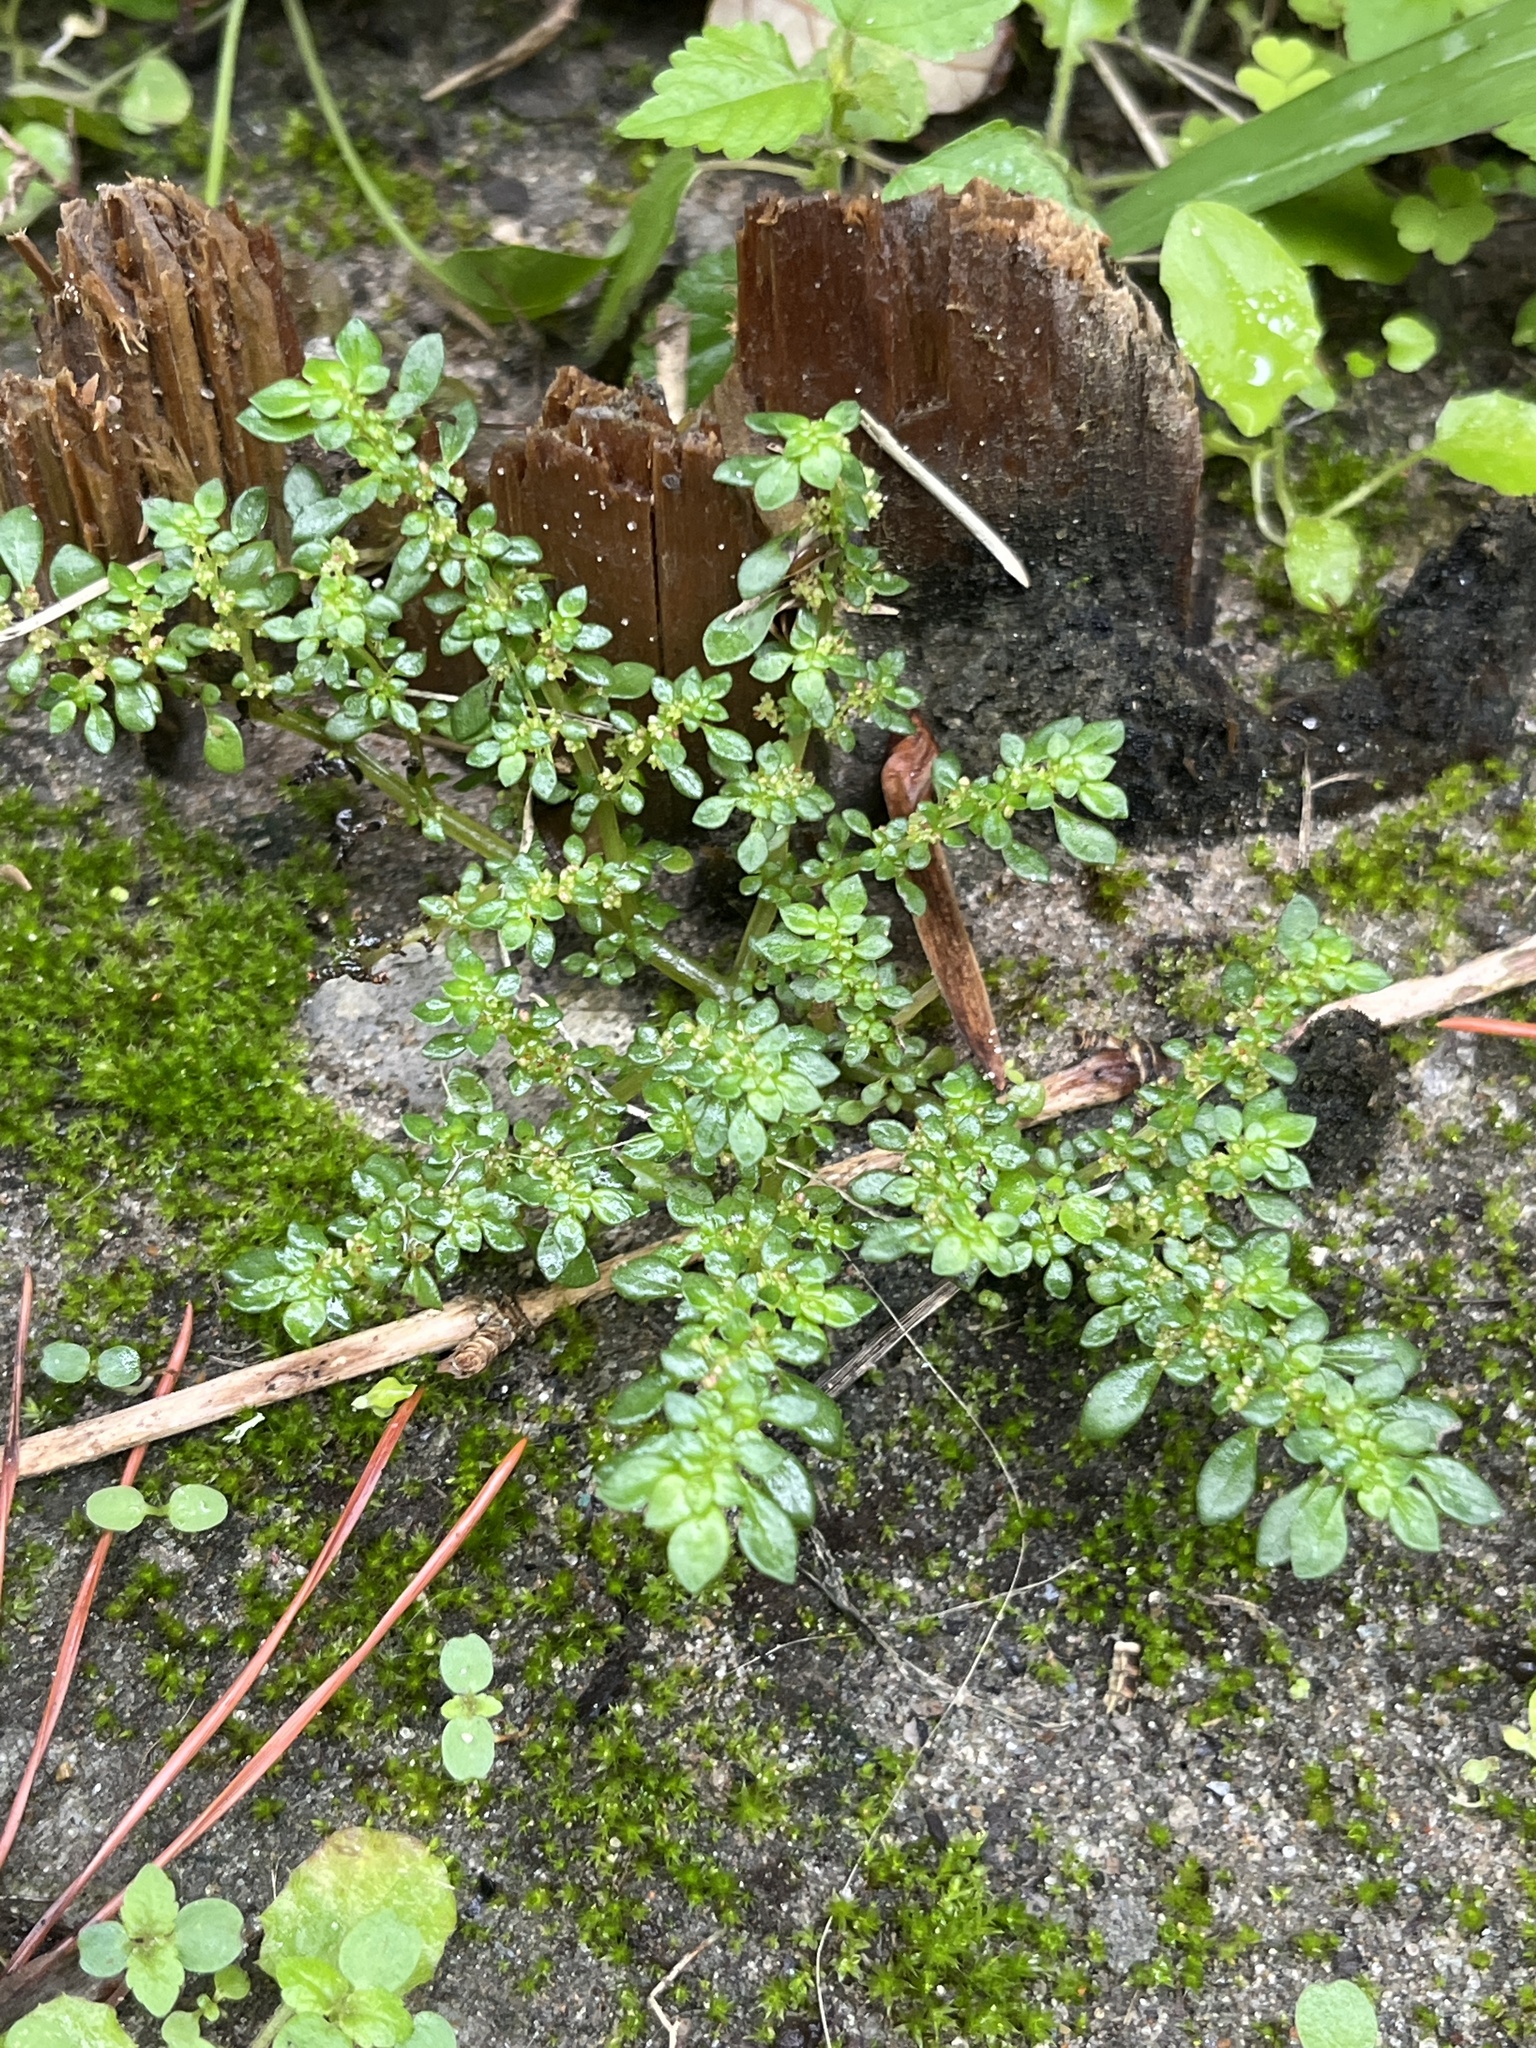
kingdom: Plantae
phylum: Tracheophyta
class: Magnoliopsida
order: Rosales
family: Urticaceae
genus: Pilea
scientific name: Pilea microphylla
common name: Artillery-plant
